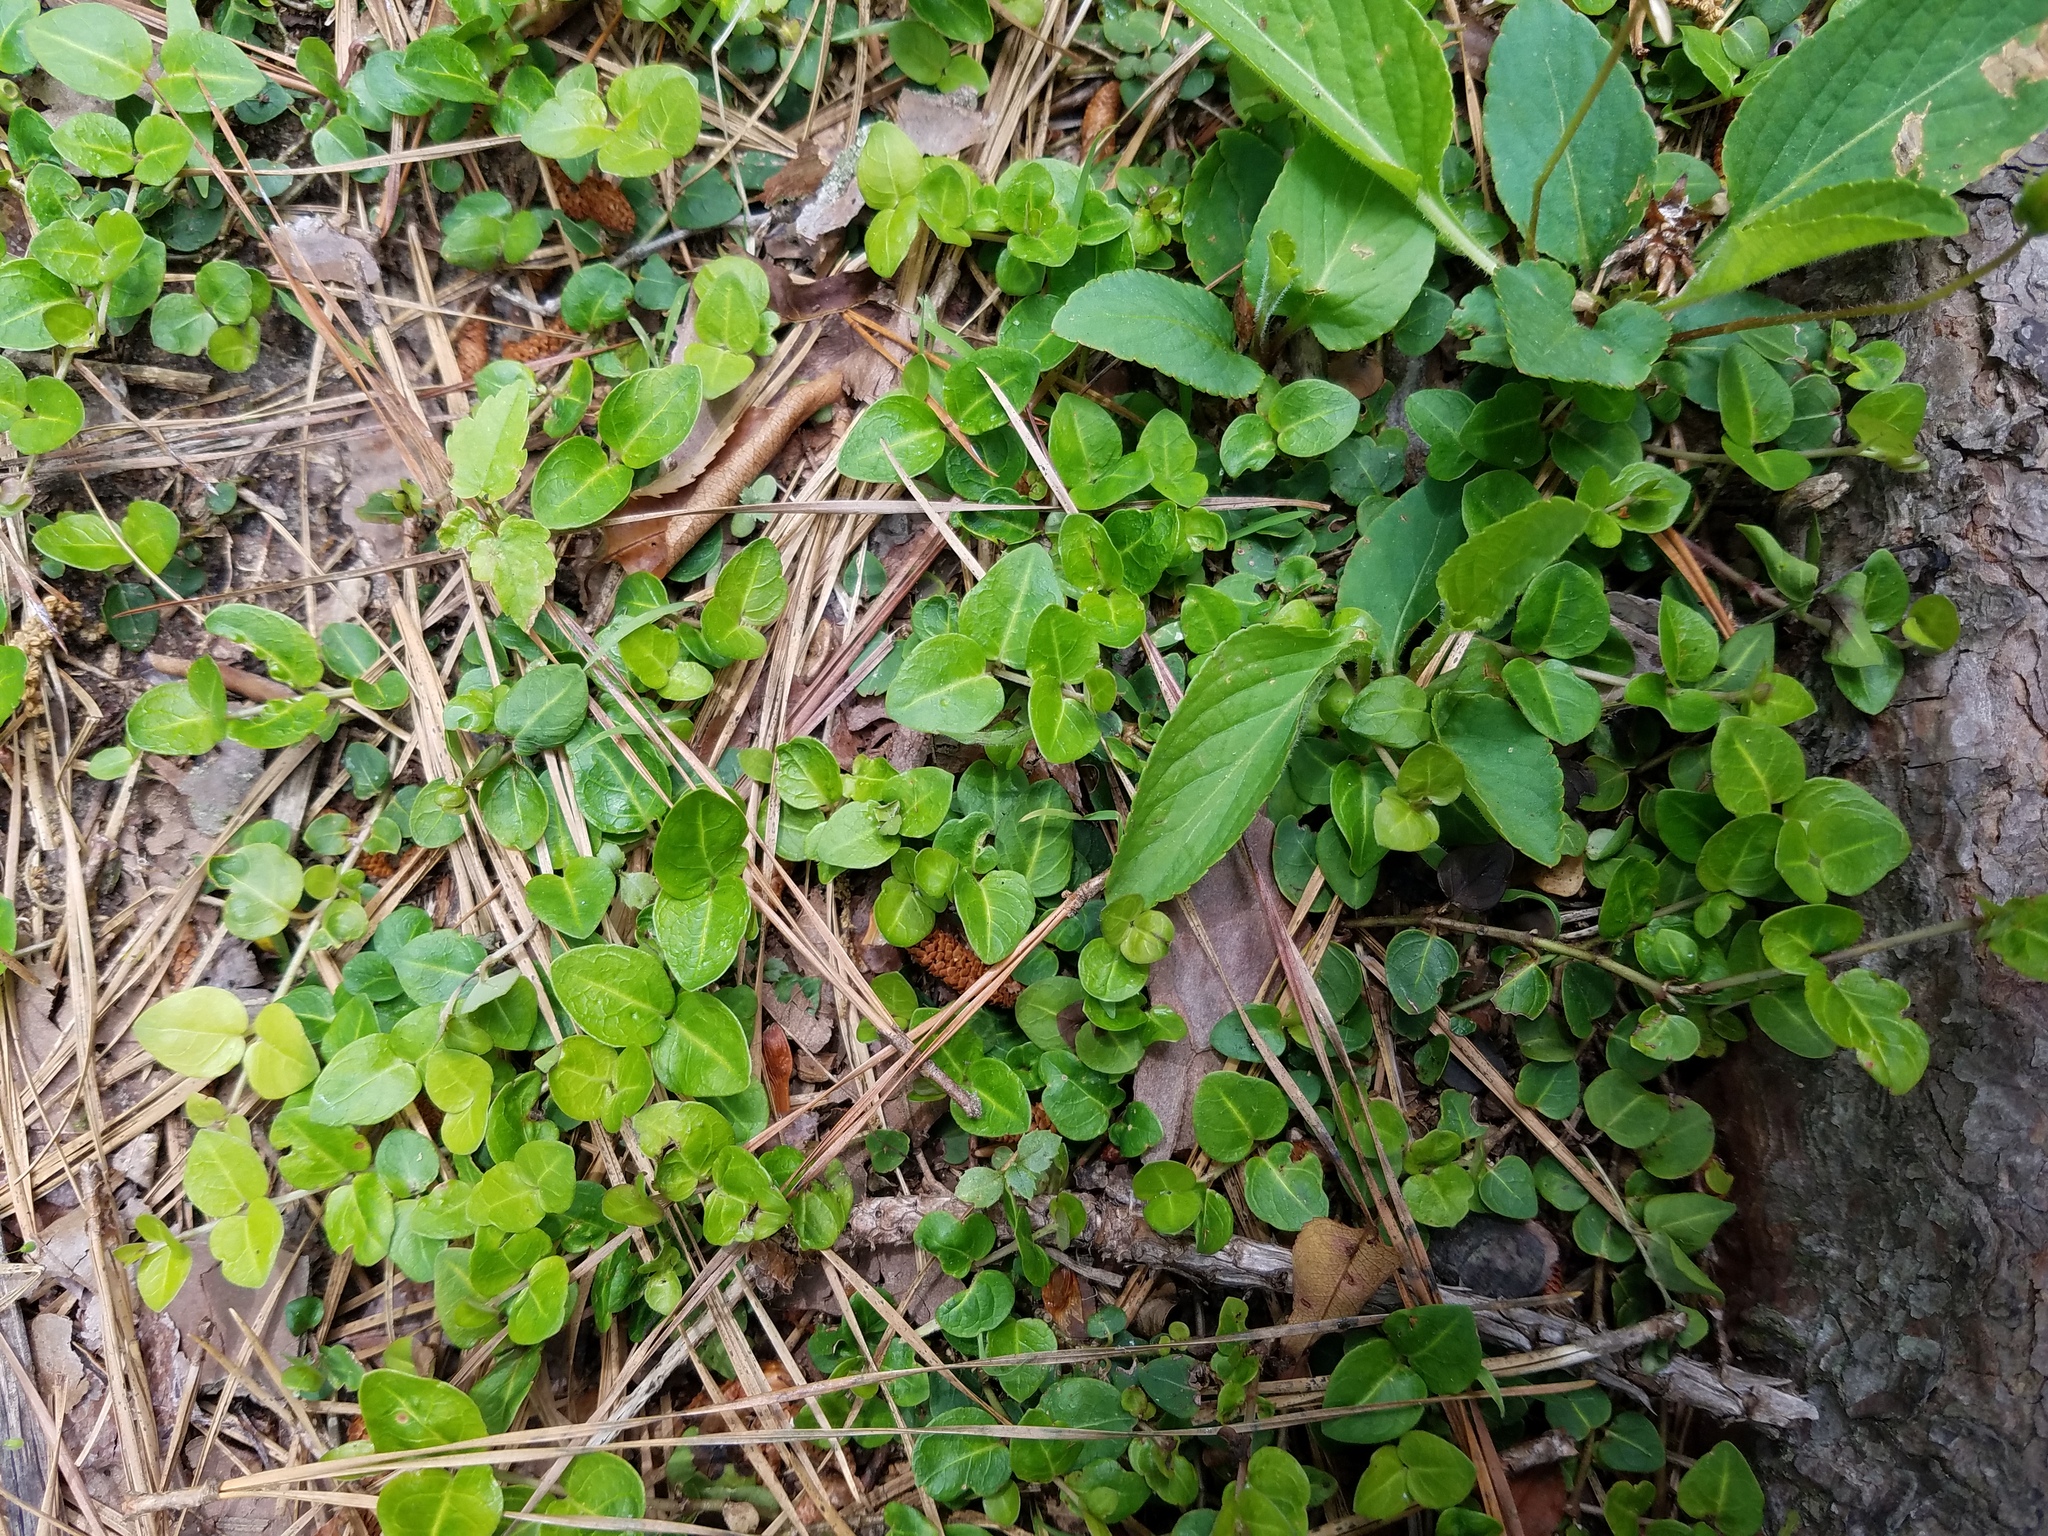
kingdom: Plantae
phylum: Tracheophyta
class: Magnoliopsida
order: Gentianales
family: Rubiaceae
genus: Mitchella
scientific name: Mitchella repens
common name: Partridge-berry
